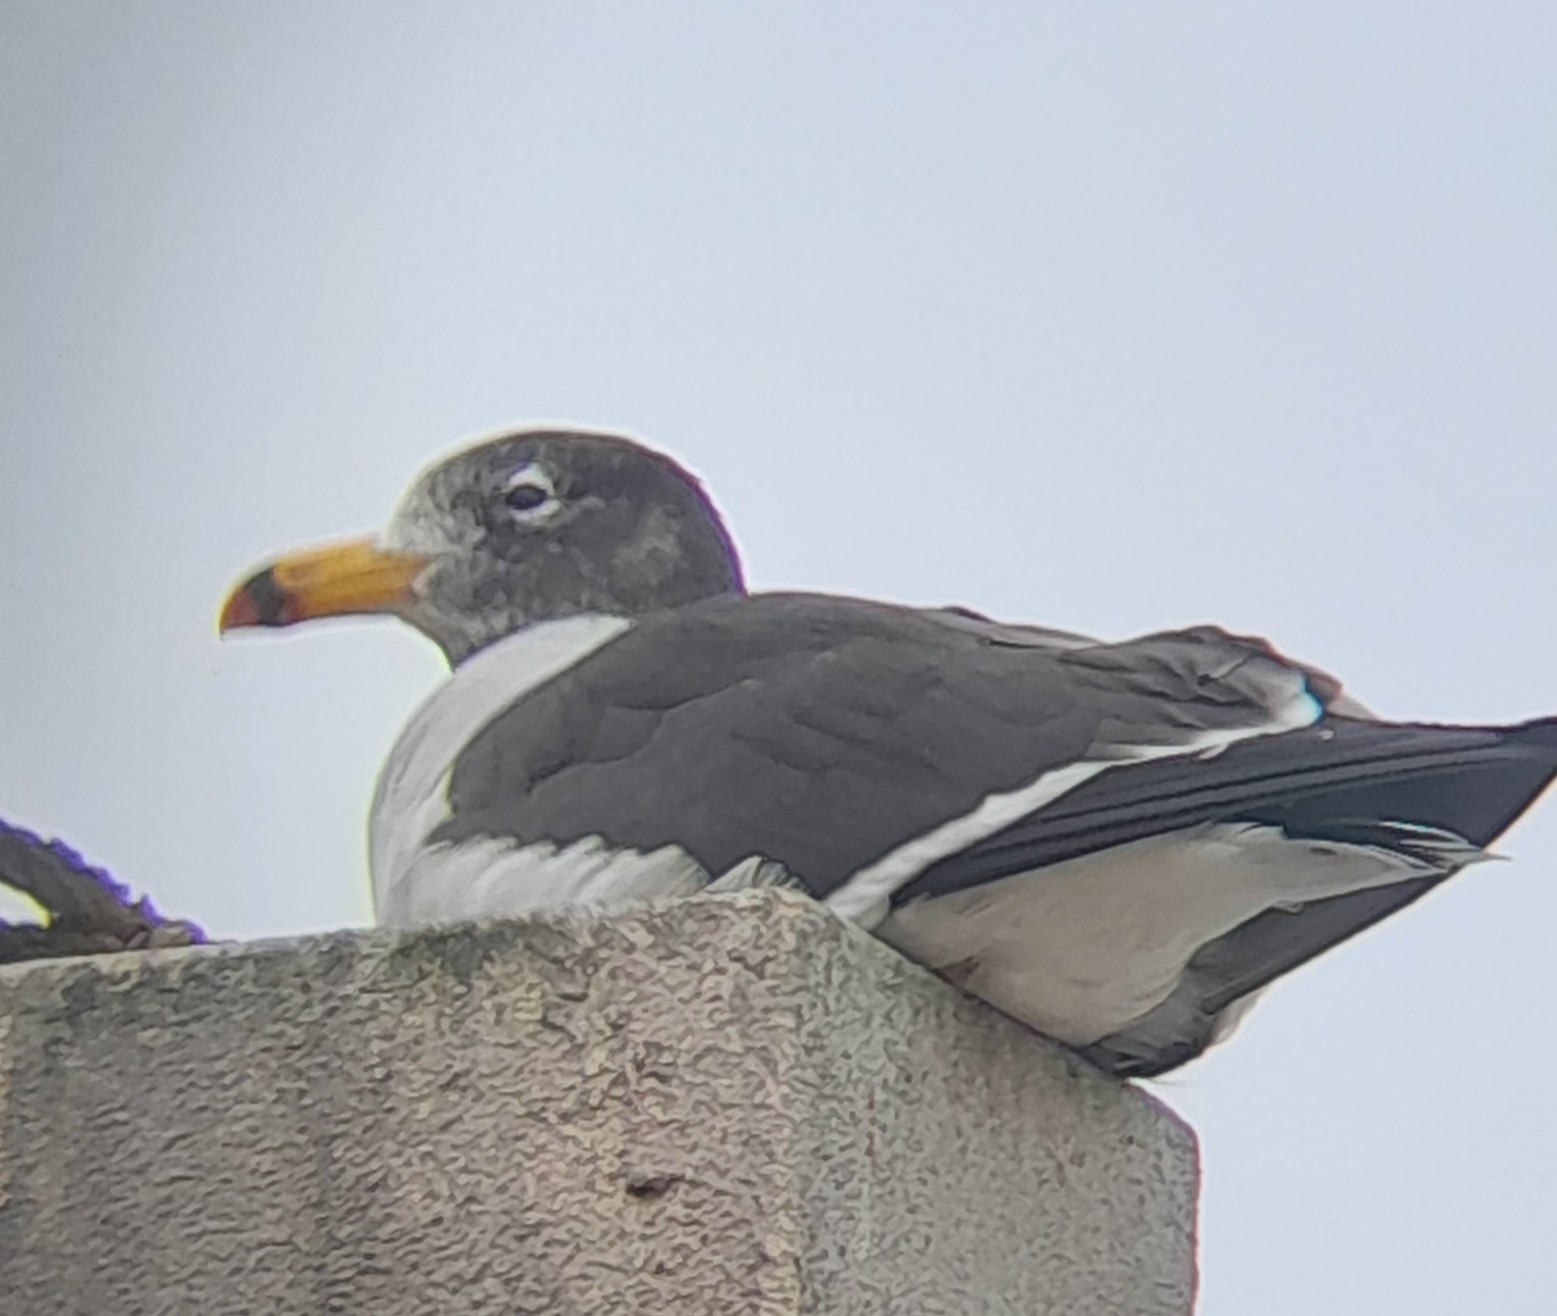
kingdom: Animalia
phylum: Chordata
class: Aves
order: Charadriiformes
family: Laridae
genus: Larus
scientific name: Larus belcheri
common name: Belcher's gull
